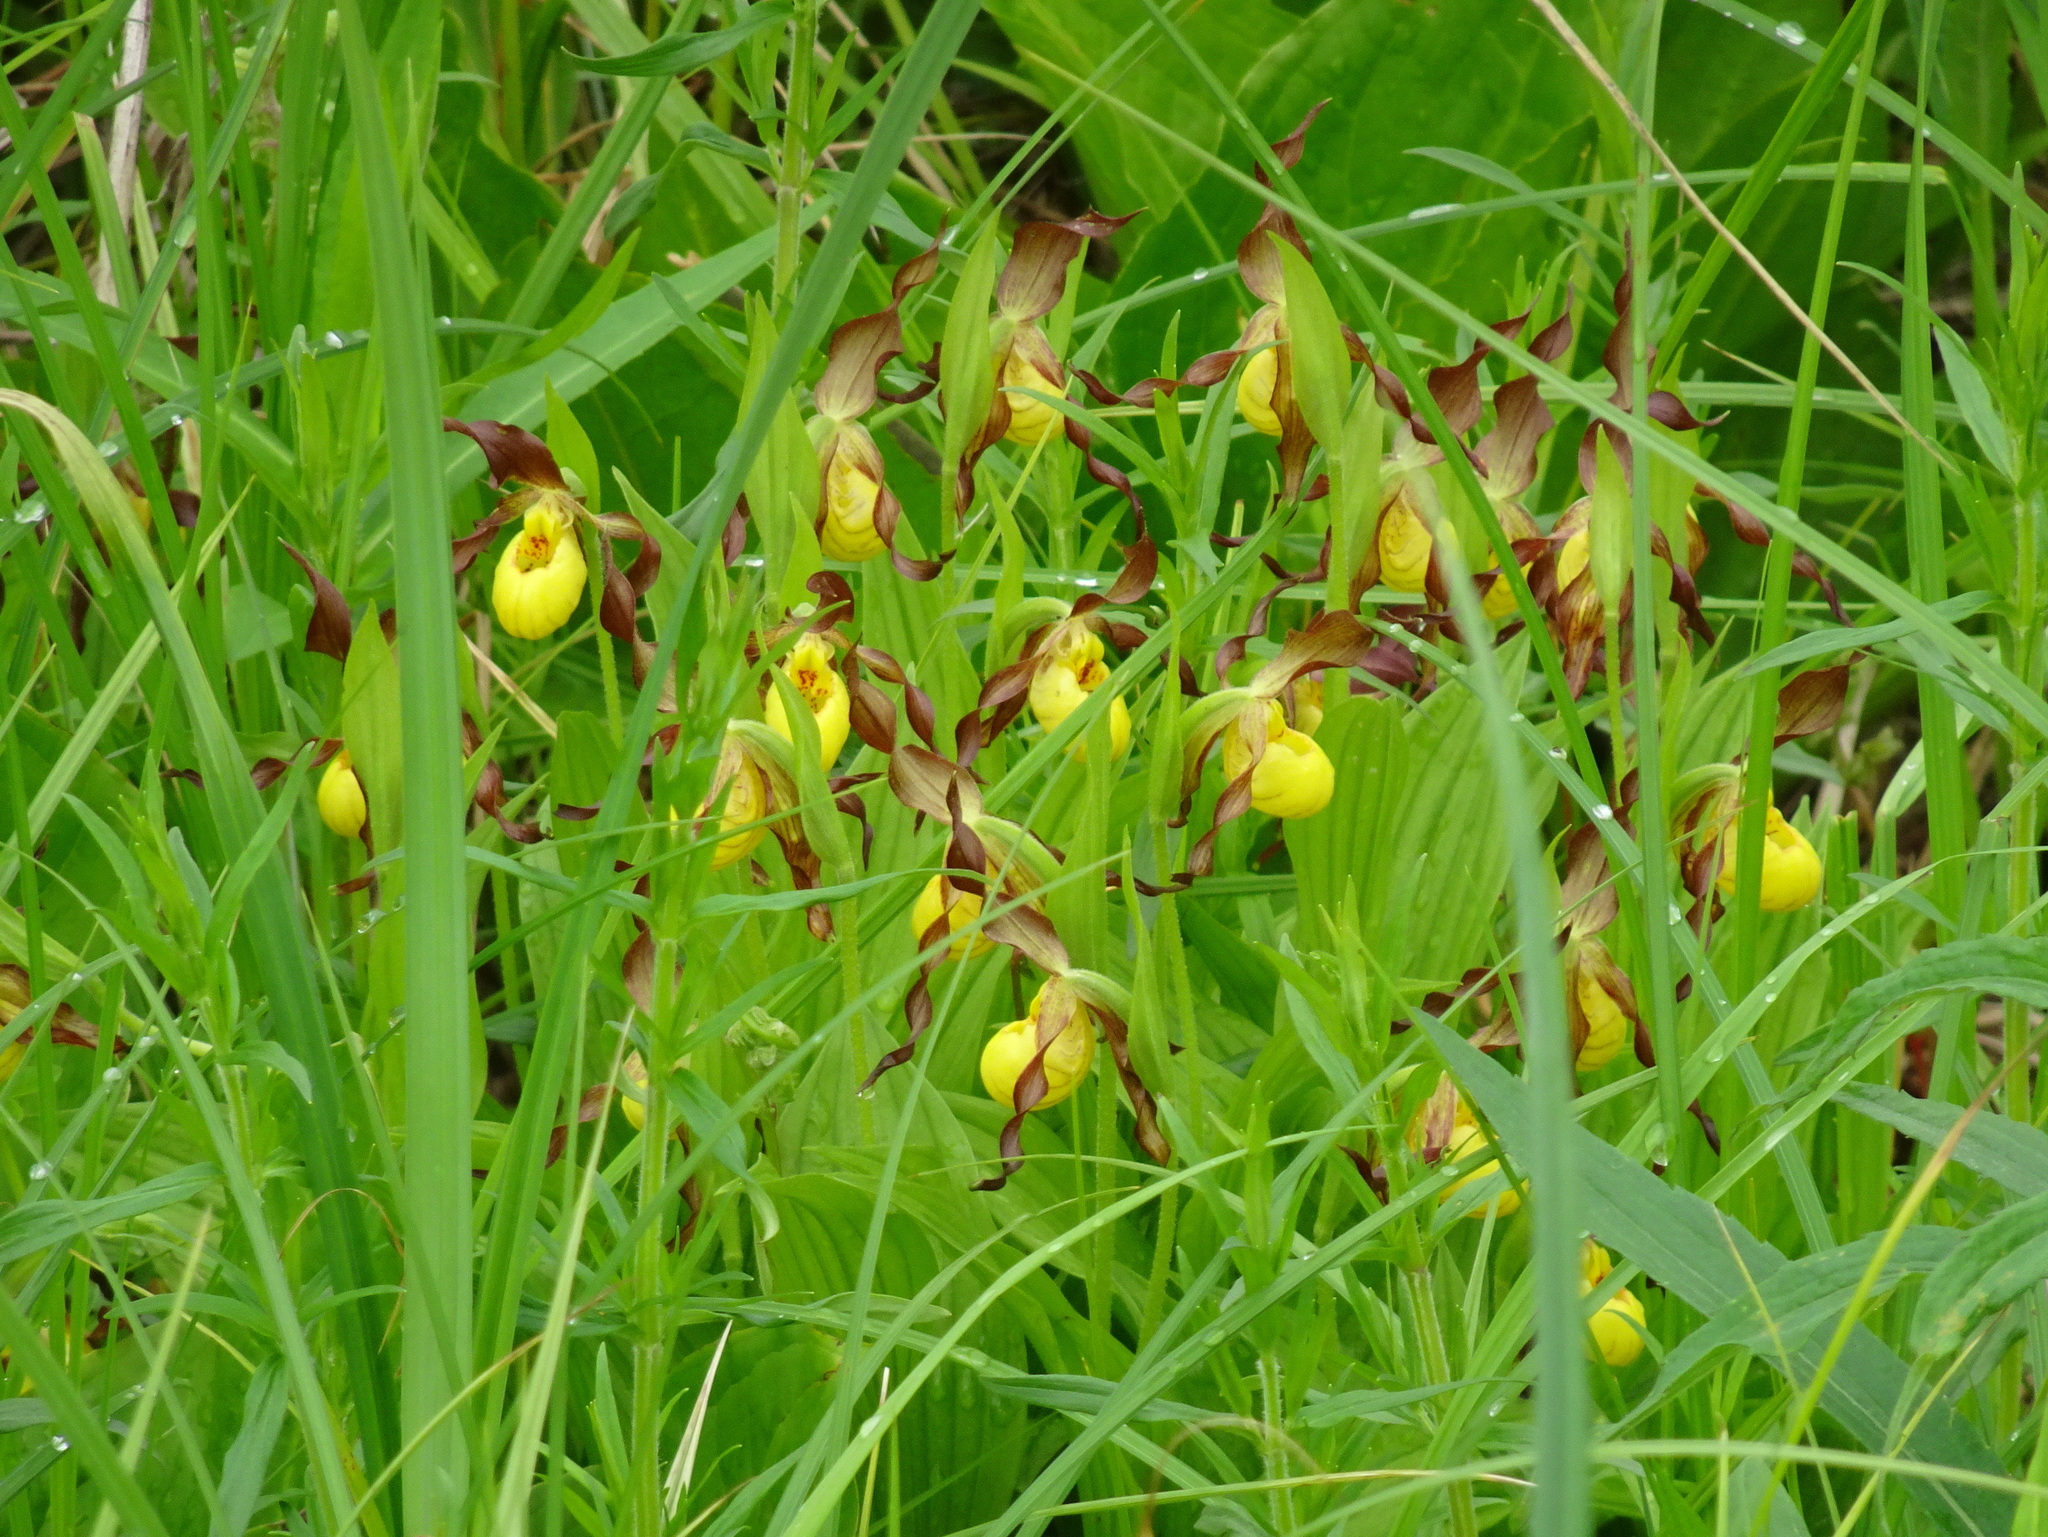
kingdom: Plantae
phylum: Tracheophyta
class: Liliopsida
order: Asparagales
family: Orchidaceae
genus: Cypripedium
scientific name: Cypripedium parviflorum
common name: American yellow lady's-slipper
